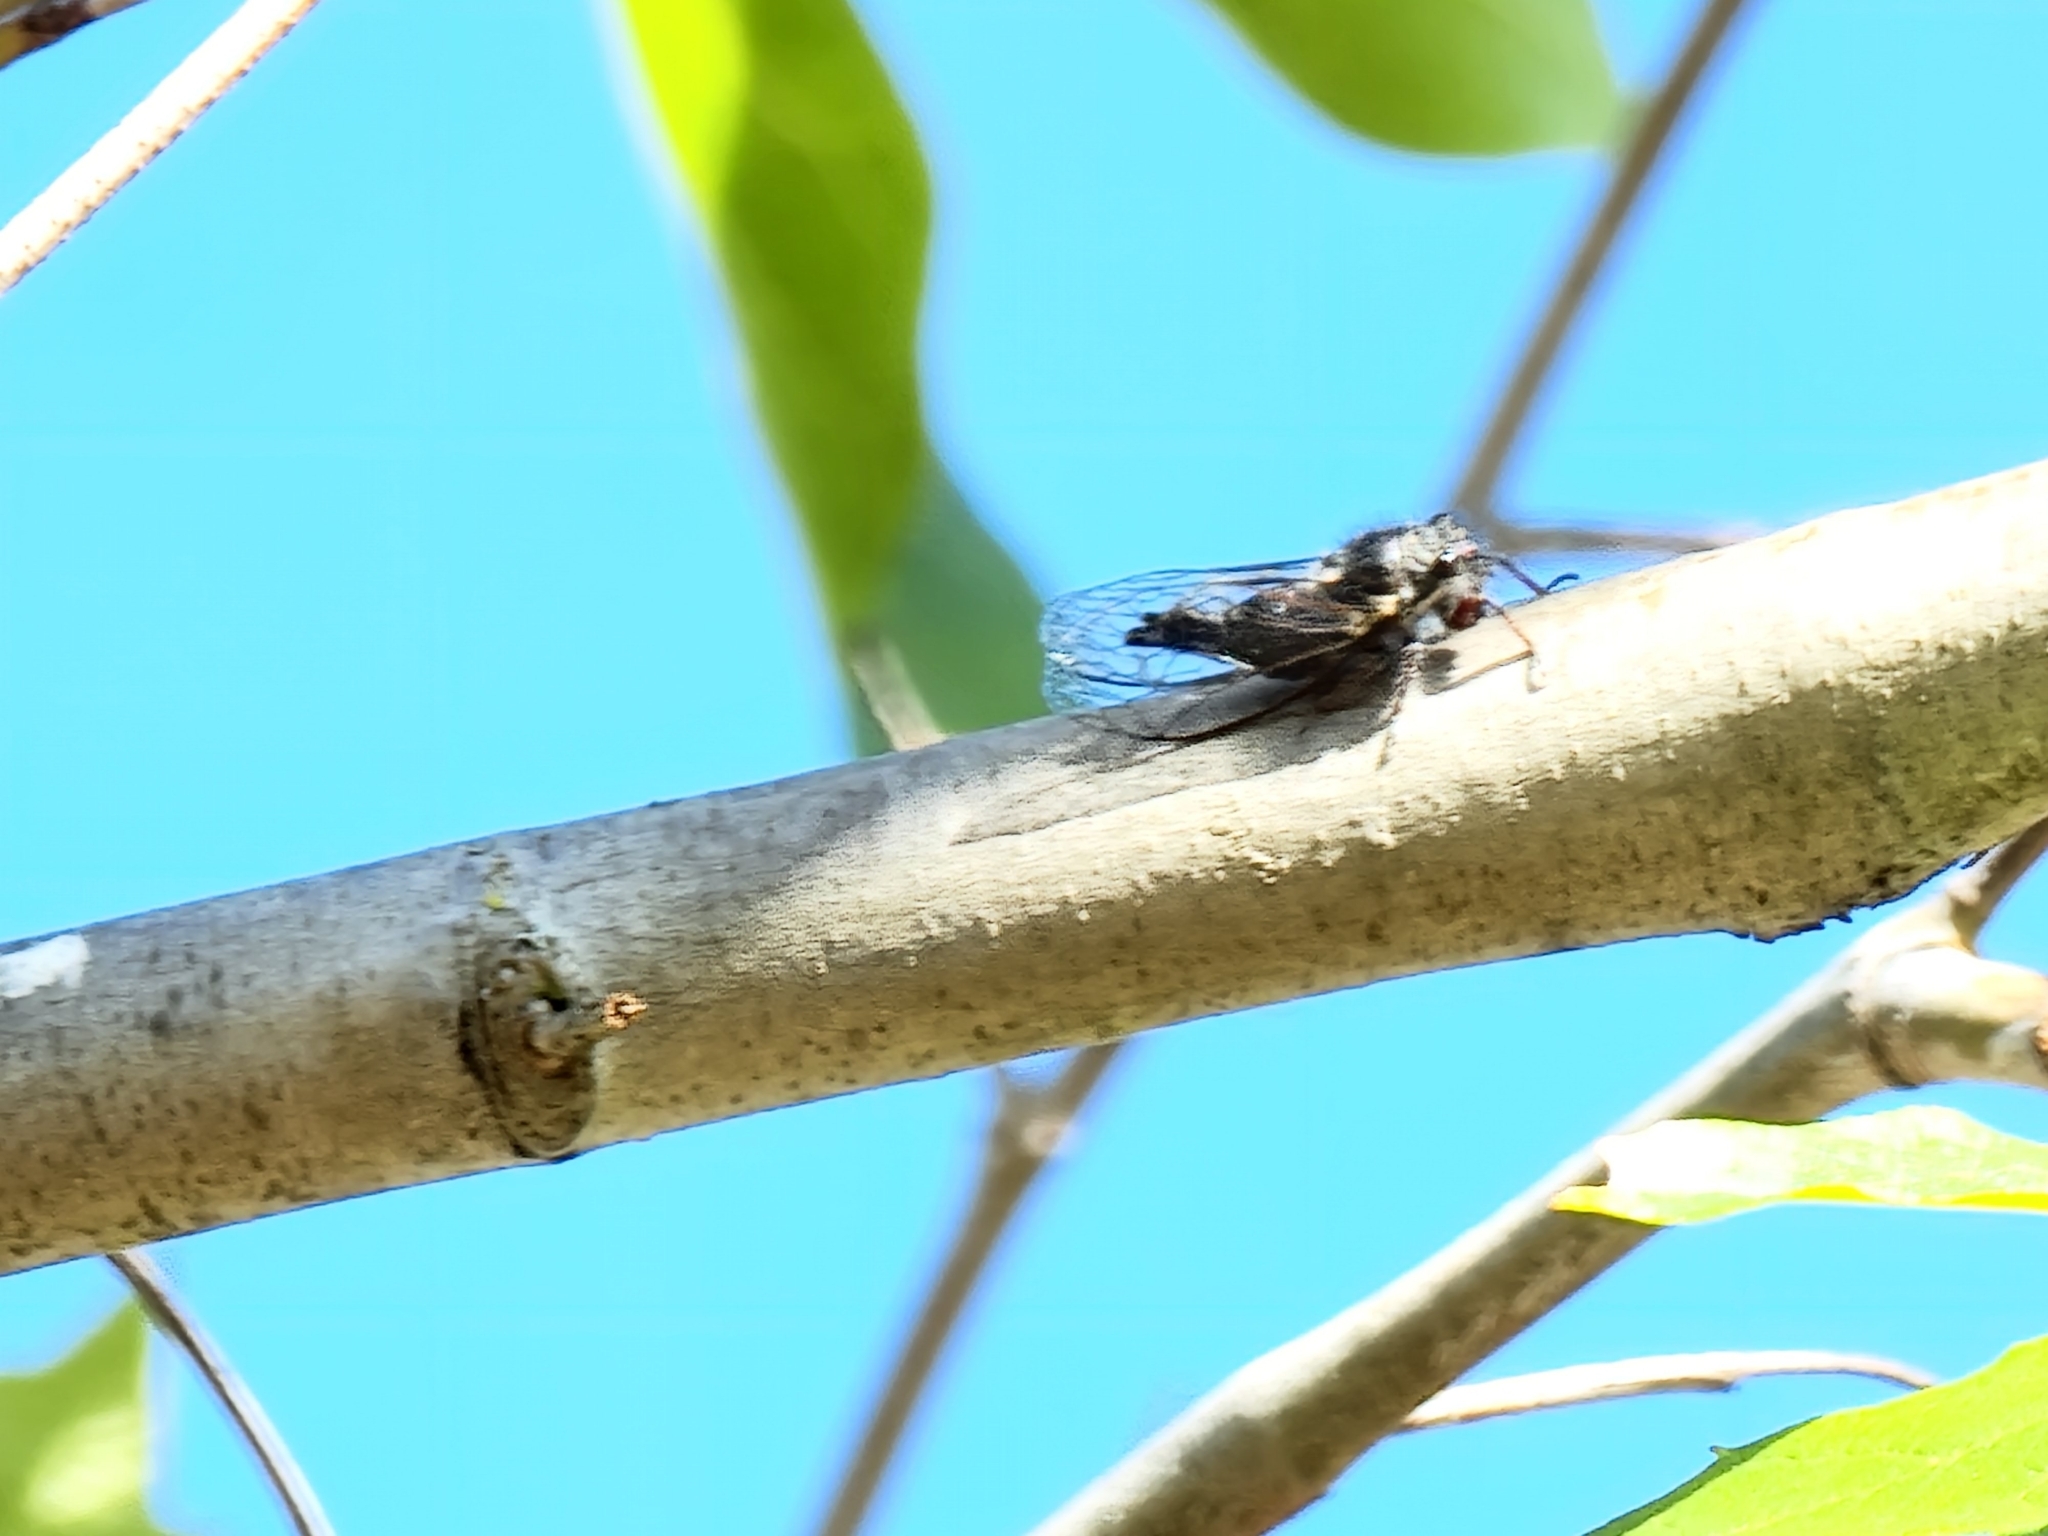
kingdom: Animalia
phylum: Arthropoda
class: Insecta
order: Hemiptera
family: Cicadidae
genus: Platypedia
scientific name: Platypedia minor
